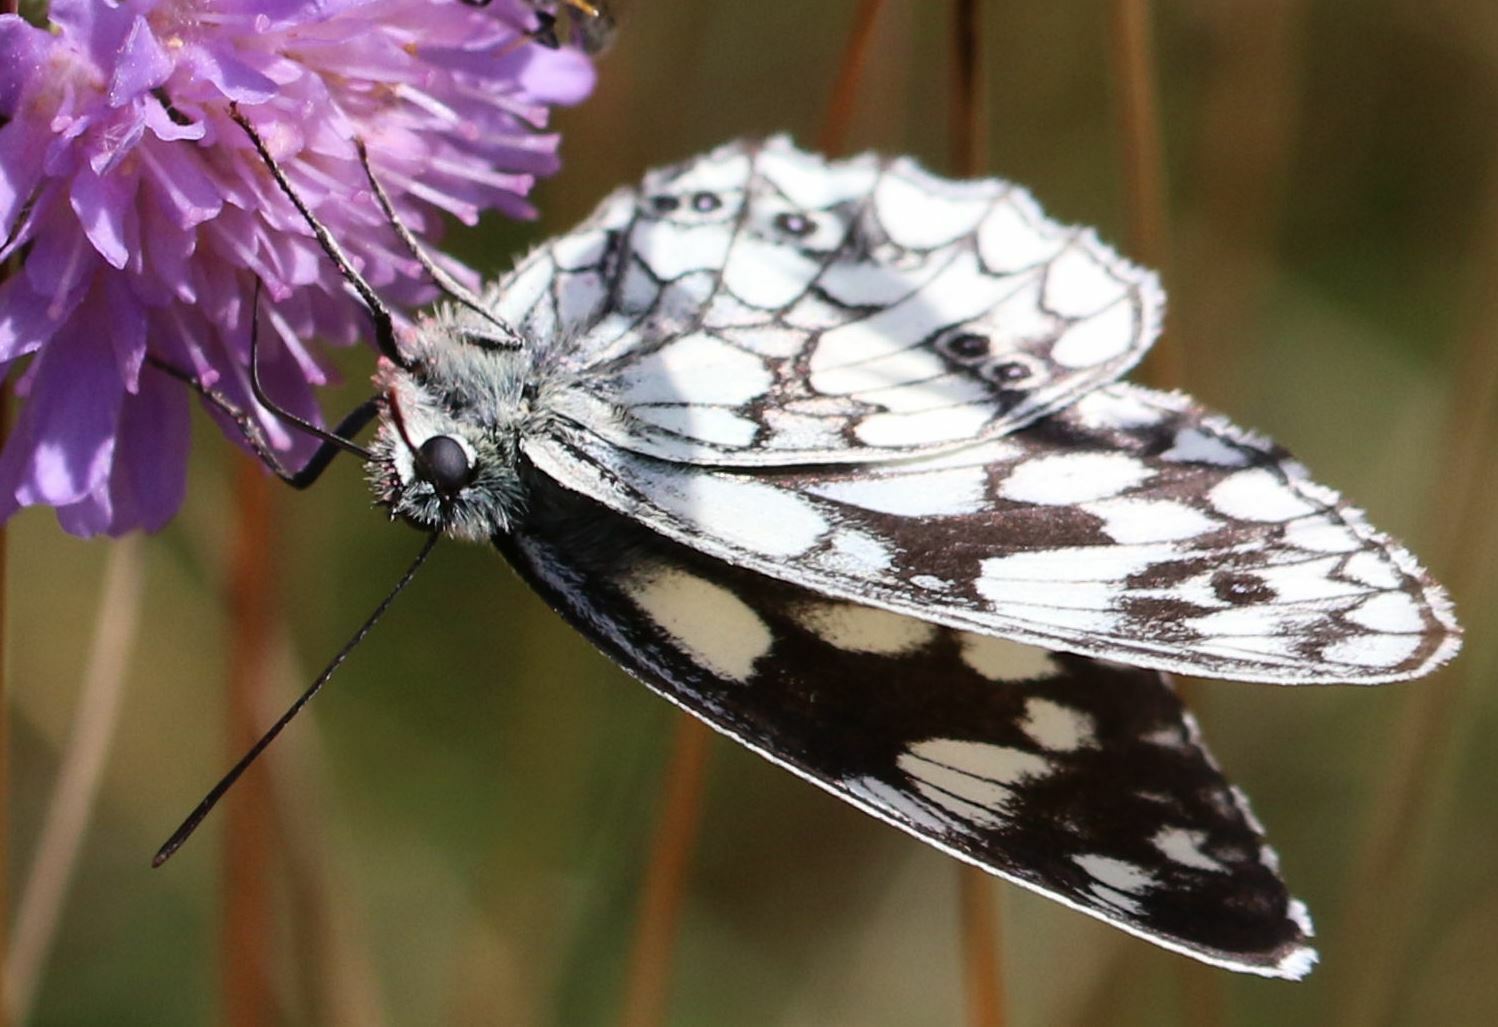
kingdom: Animalia
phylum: Arthropoda
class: Insecta
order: Lepidoptera
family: Nymphalidae
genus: Melanargia
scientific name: Melanargia galathea
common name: Marbled white
